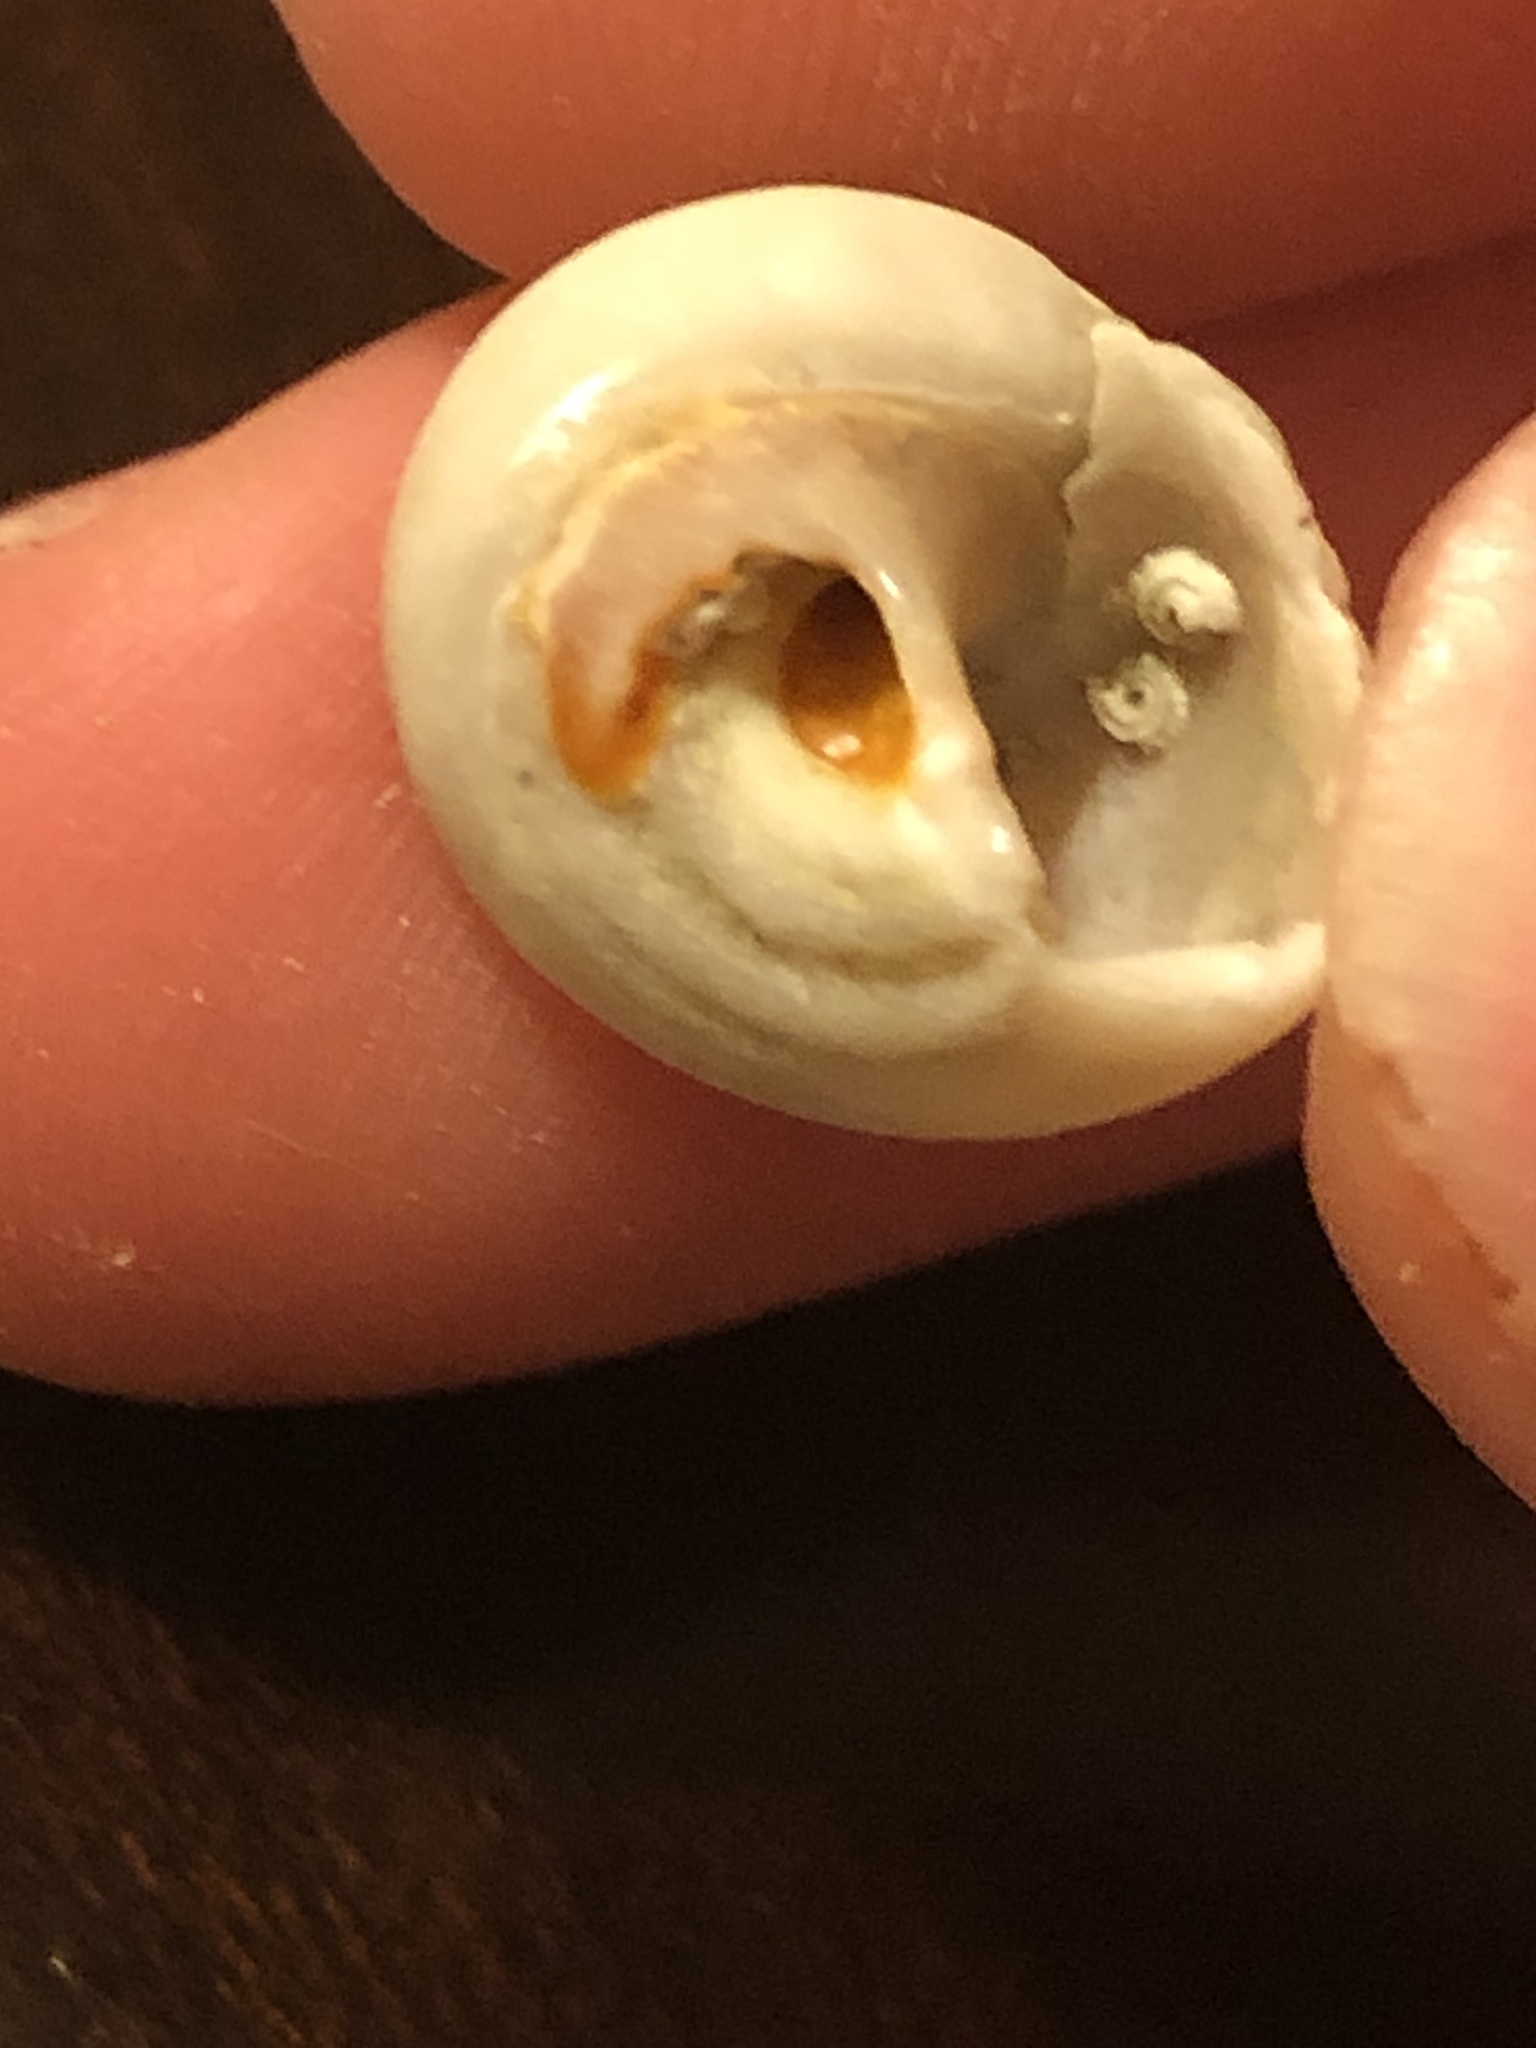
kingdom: Animalia
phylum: Mollusca
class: Gastropoda
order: Trochida
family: Tegulidae
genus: Tegula
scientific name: Tegula aureotincta
